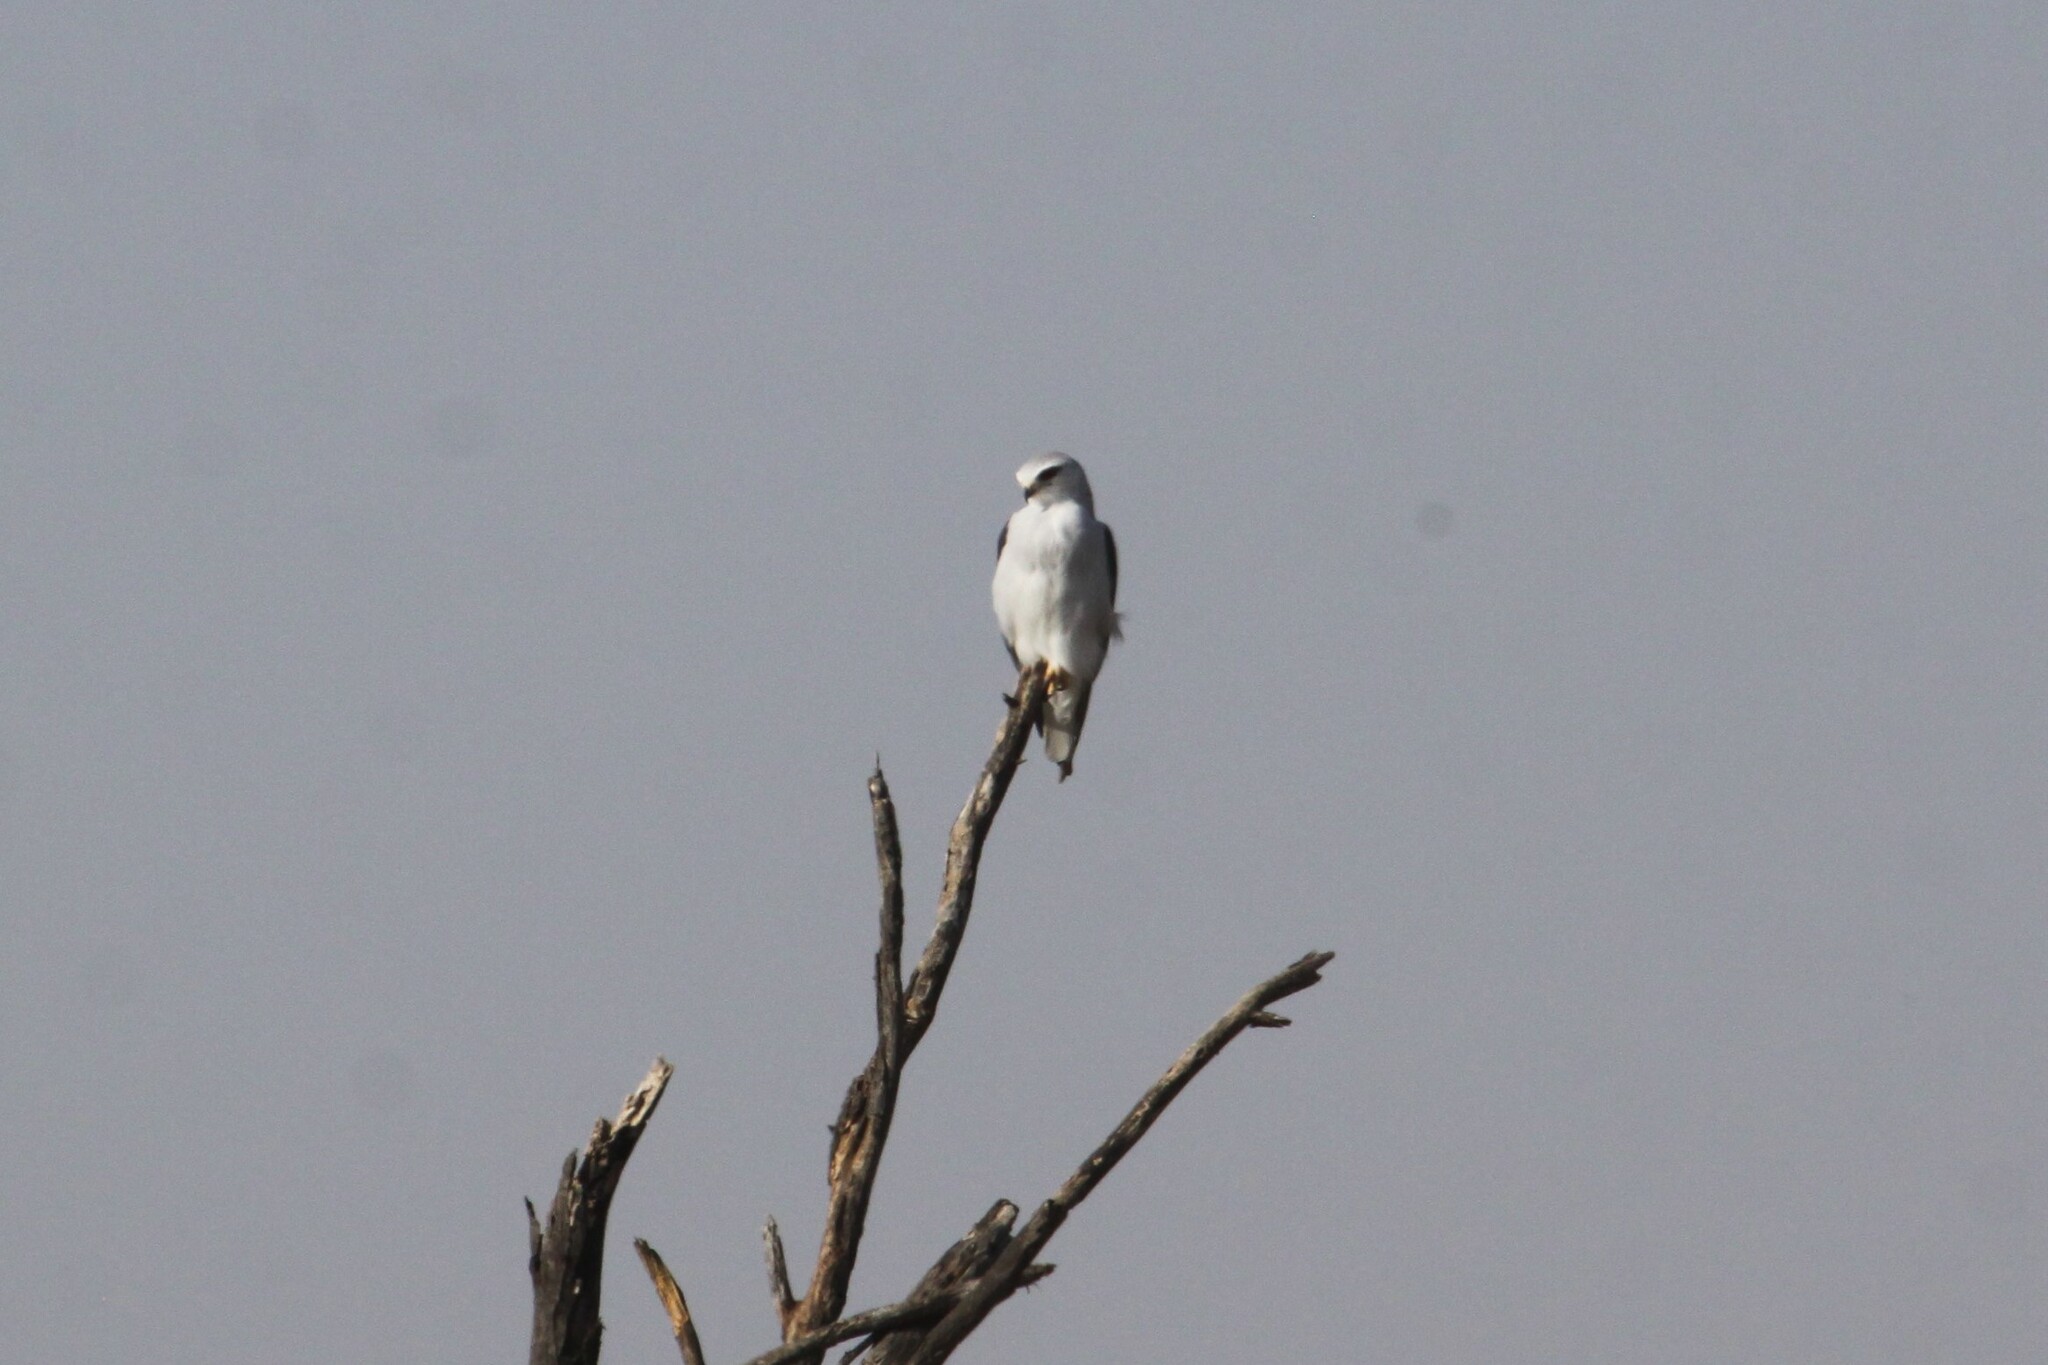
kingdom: Animalia
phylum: Chordata
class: Aves
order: Accipitriformes
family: Accipitridae
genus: Elanus
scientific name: Elanus caeruleus
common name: Black-winged kite
